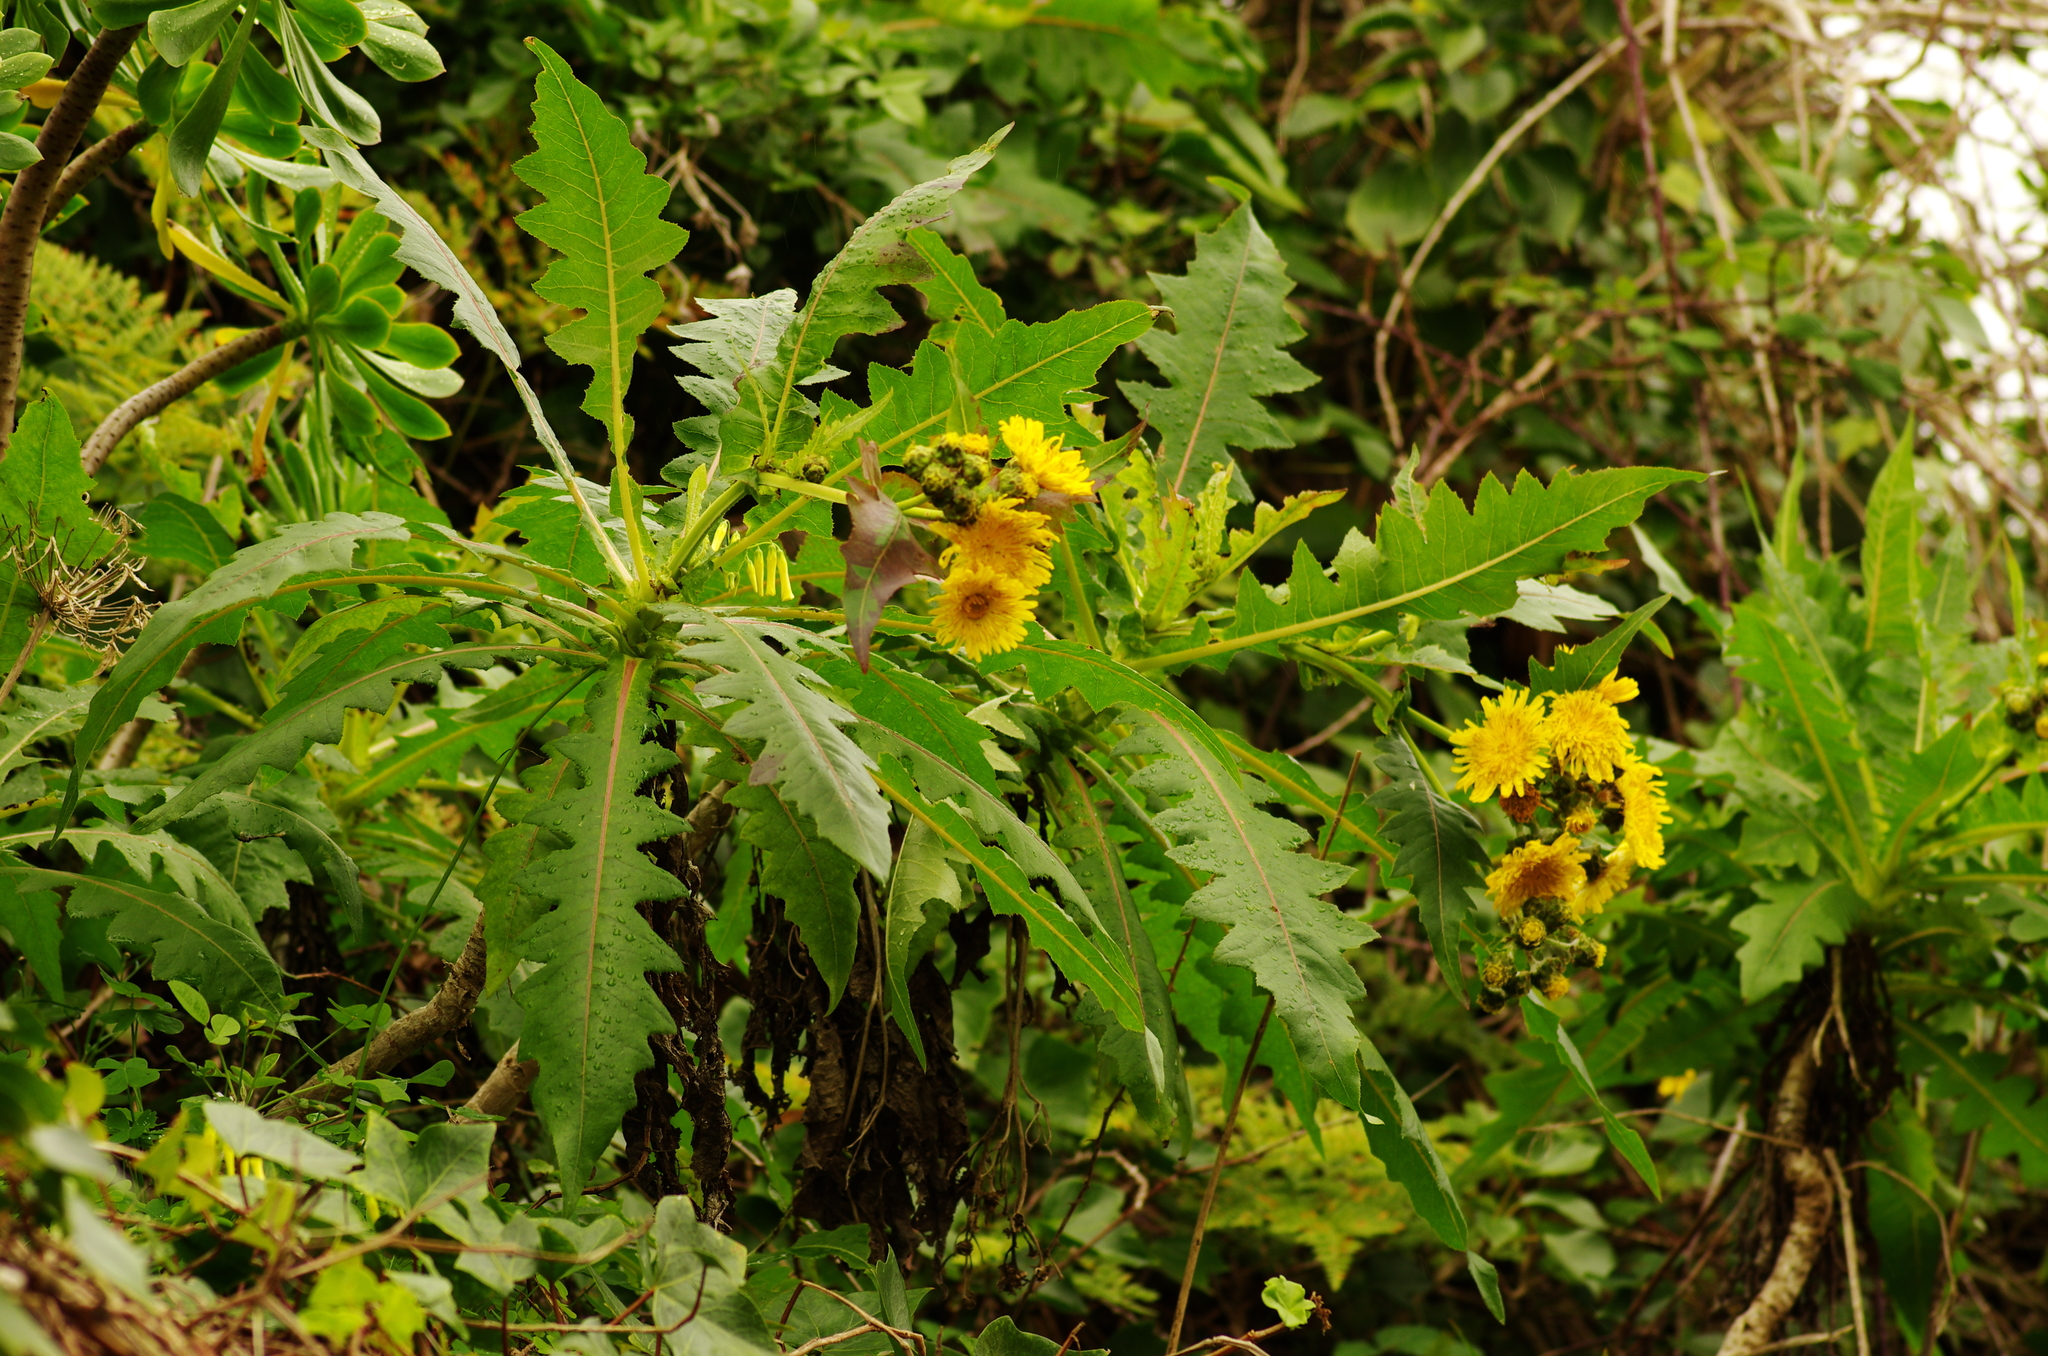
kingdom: Plantae
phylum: Tracheophyta
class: Magnoliopsida
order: Asterales
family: Asteraceae
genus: Sonchus
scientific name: Sonchus congestus
